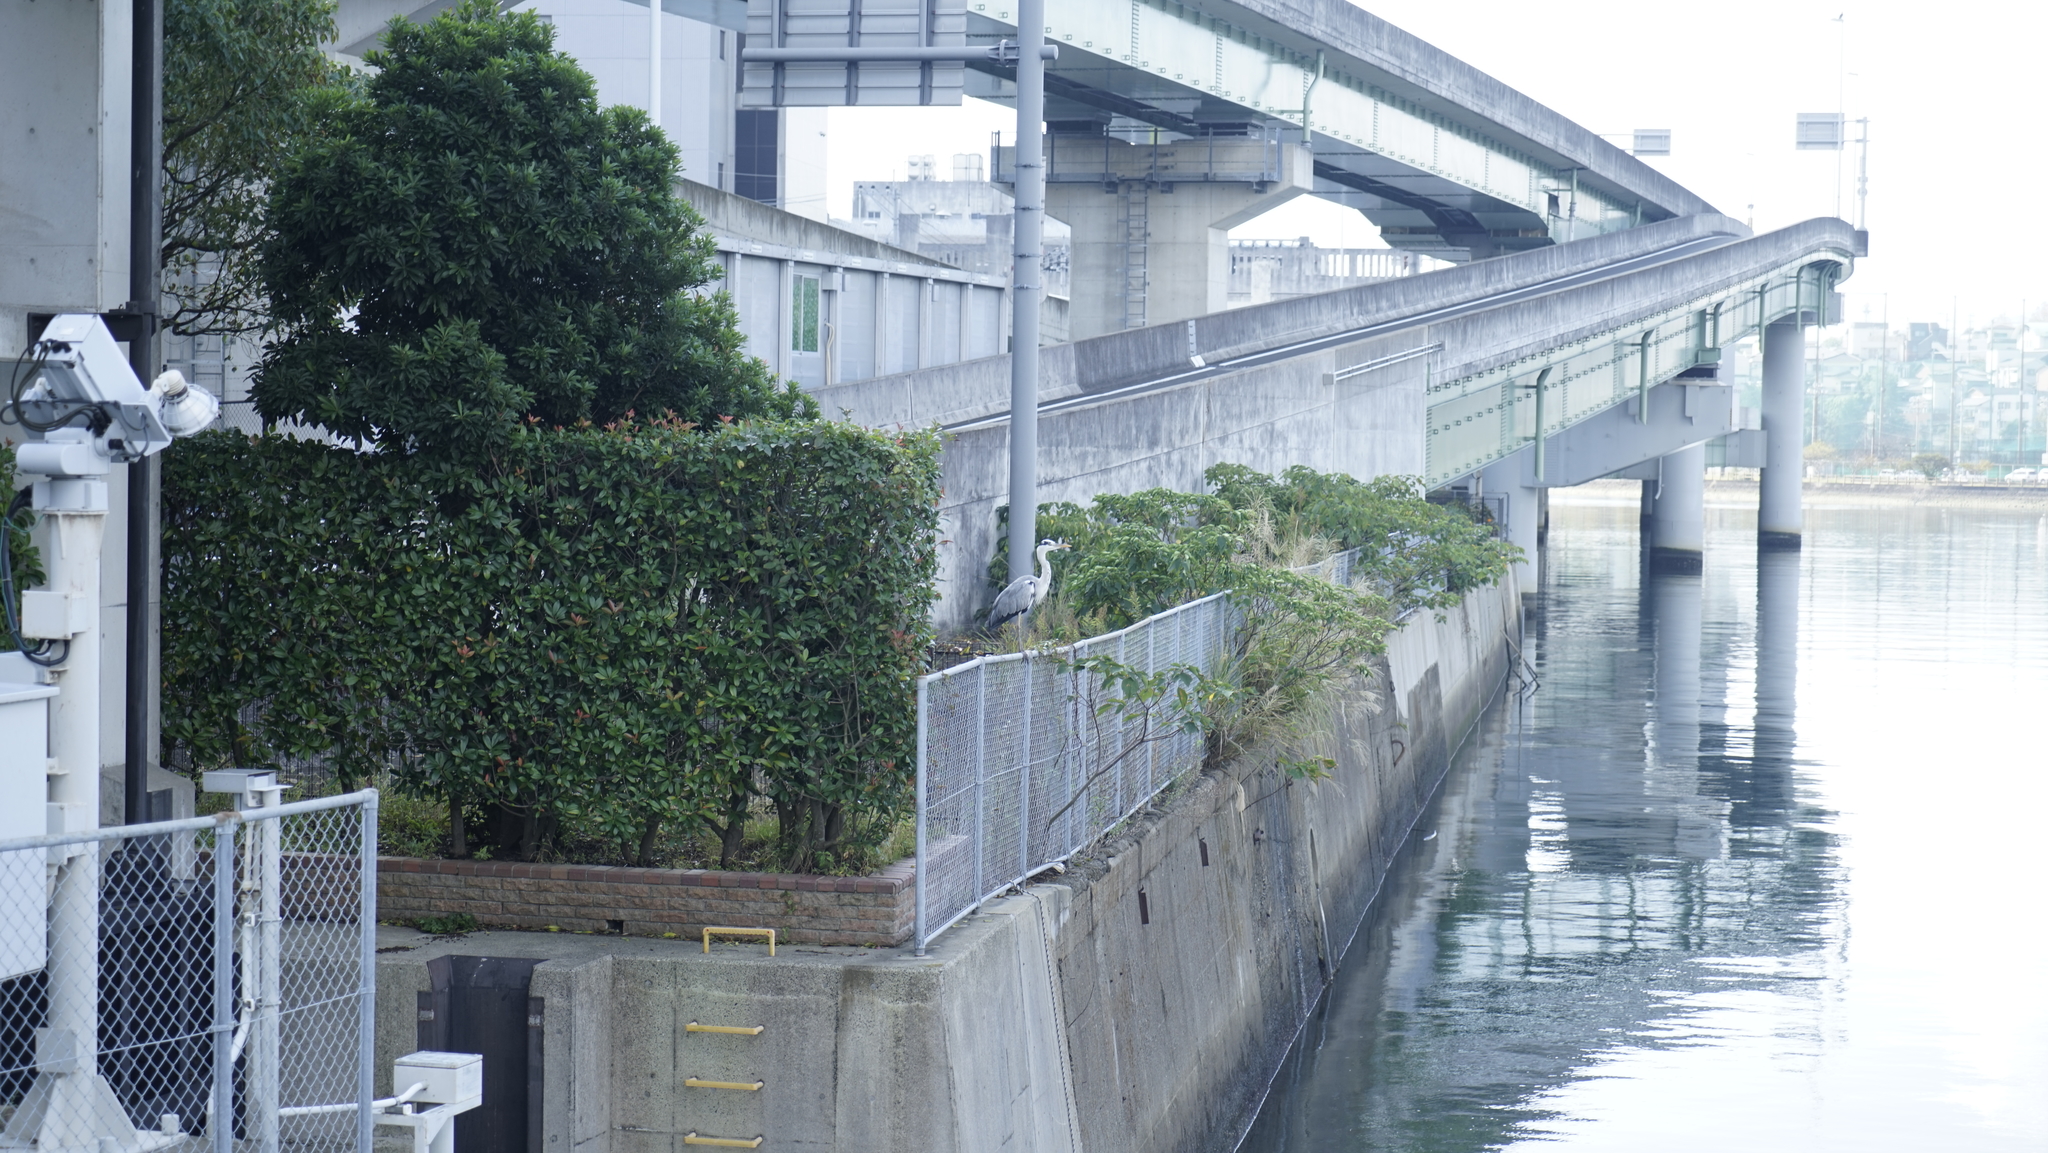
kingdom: Animalia
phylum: Chordata
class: Aves
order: Pelecaniformes
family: Ardeidae
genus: Ardea
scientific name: Ardea cinerea
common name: Grey heron
